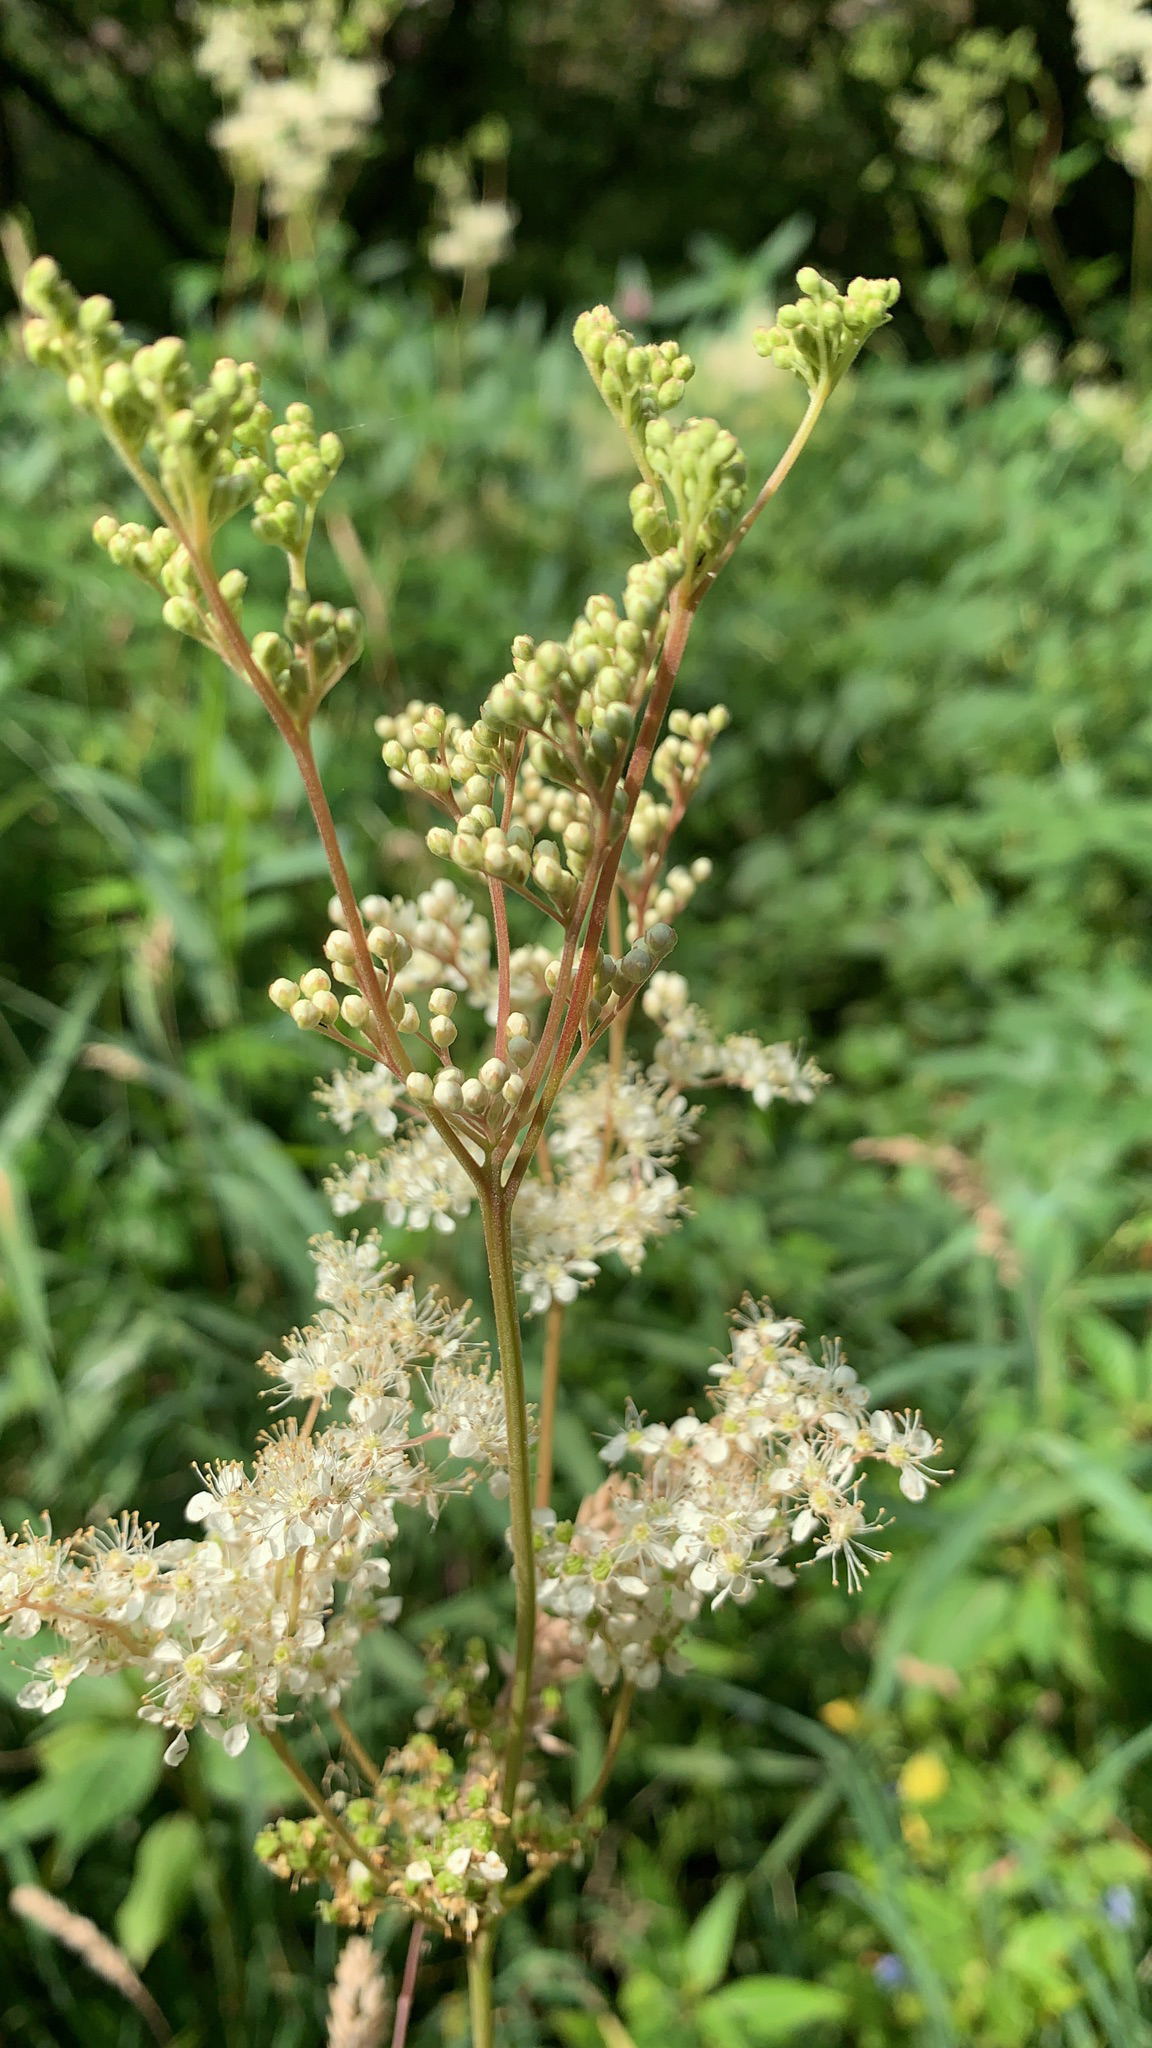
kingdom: Plantae
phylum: Tracheophyta
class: Magnoliopsida
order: Rosales
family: Rosaceae
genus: Filipendula
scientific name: Filipendula ulmaria
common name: Meadowsweet
